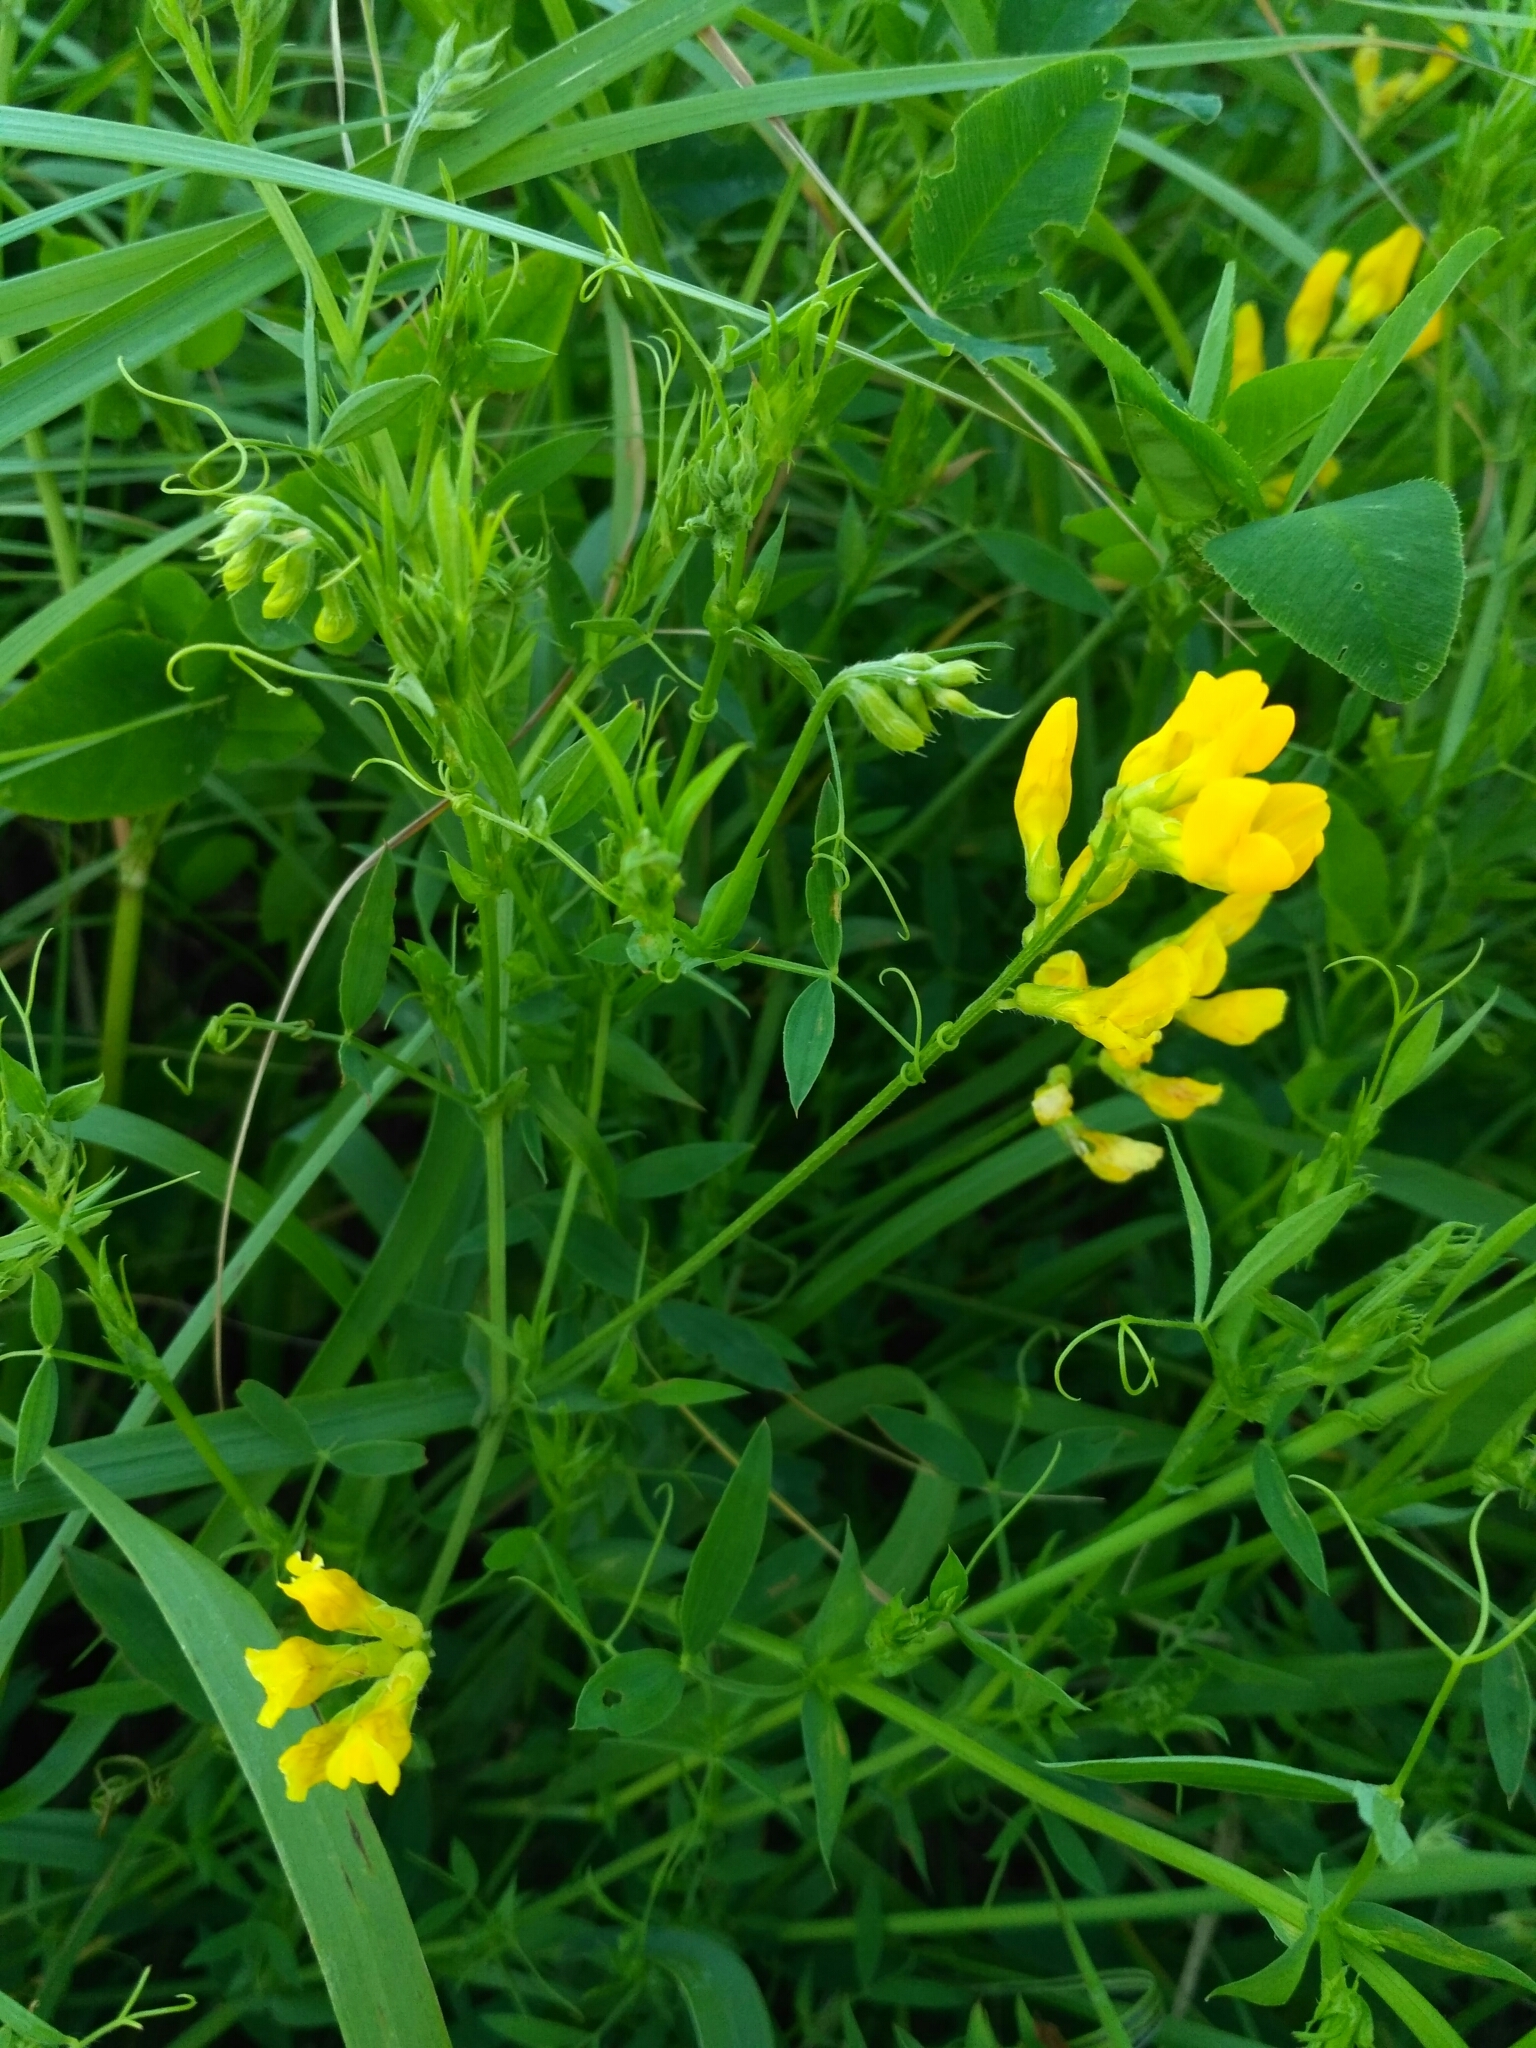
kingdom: Plantae
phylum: Tracheophyta
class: Magnoliopsida
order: Fabales
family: Fabaceae
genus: Lathyrus
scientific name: Lathyrus pratensis
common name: Meadow vetchling
